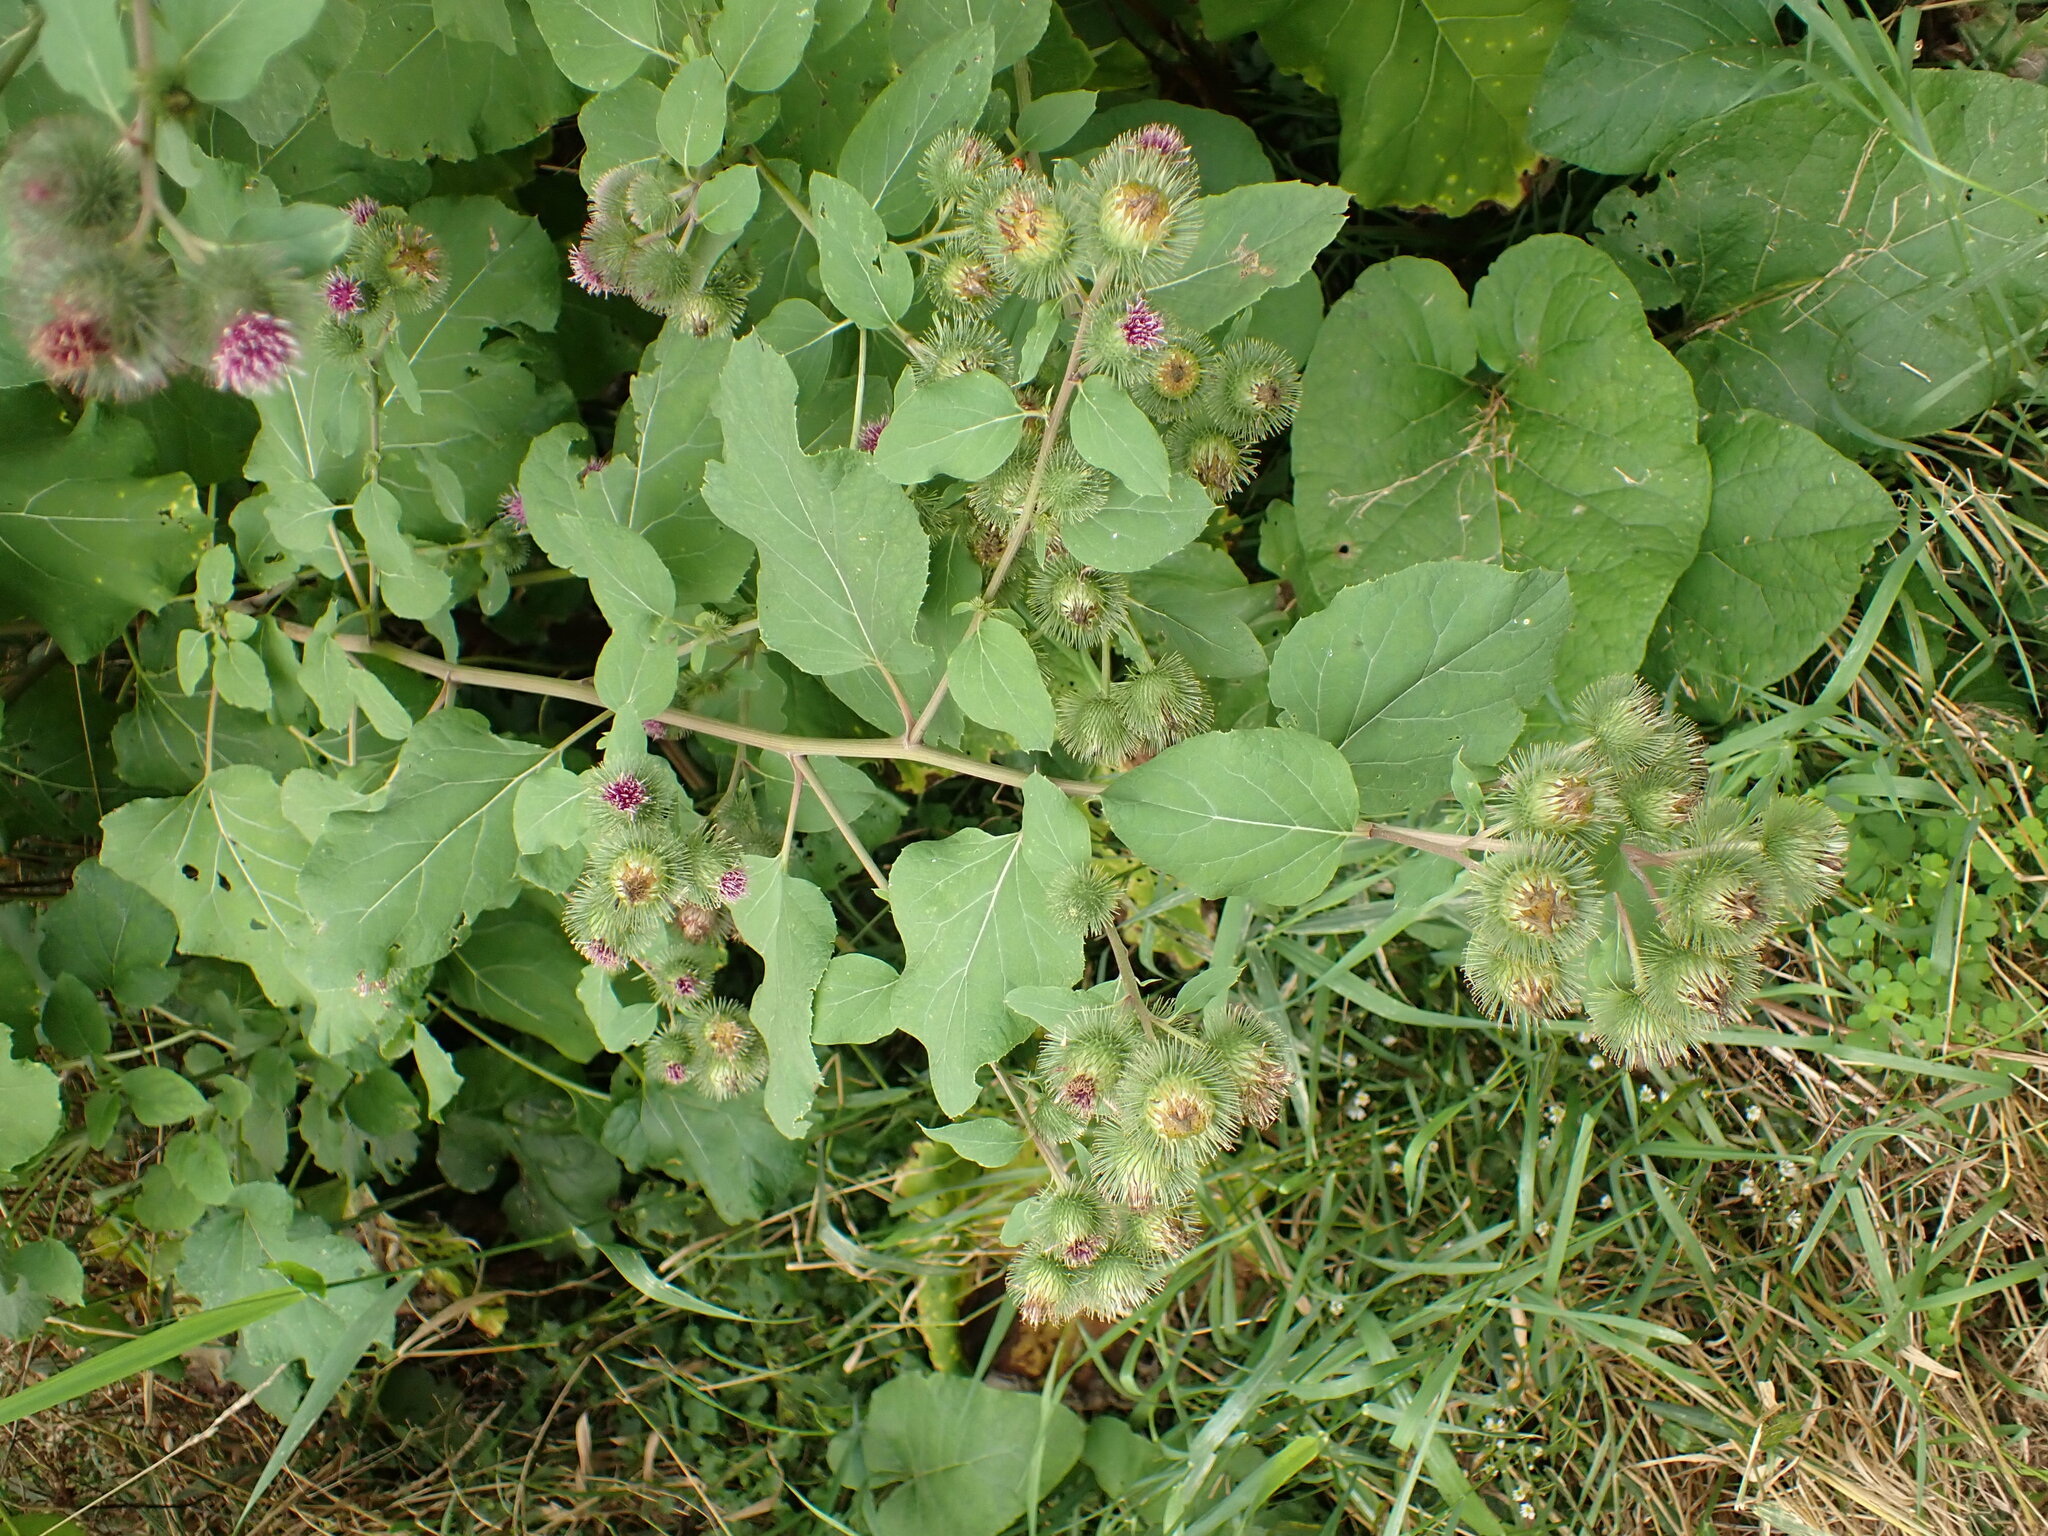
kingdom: Plantae
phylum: Tracheophyta
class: Magnoliopsida
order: Asterales
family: Asteraceae
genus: Arctium
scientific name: Arctium lappa
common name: Greater burdock
